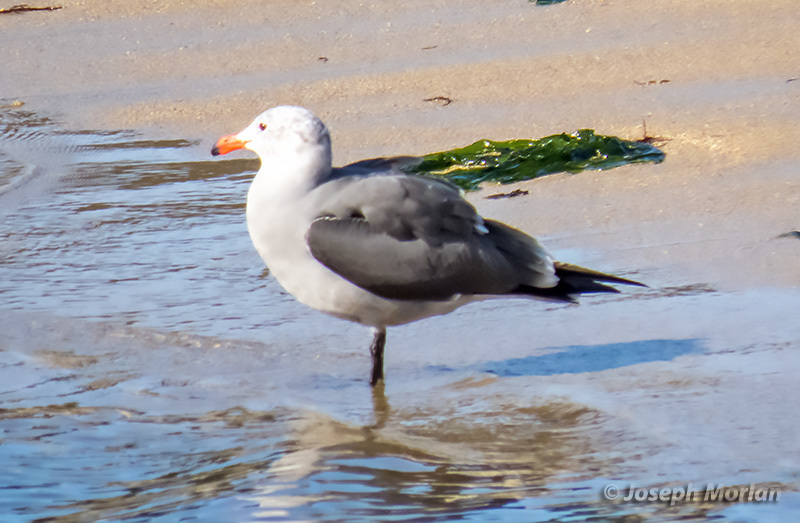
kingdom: Animalia
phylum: Chordata
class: Aves
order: Charadriiformes
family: Laridae
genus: Larus
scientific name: Larus heermanni
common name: Heermann's gull
